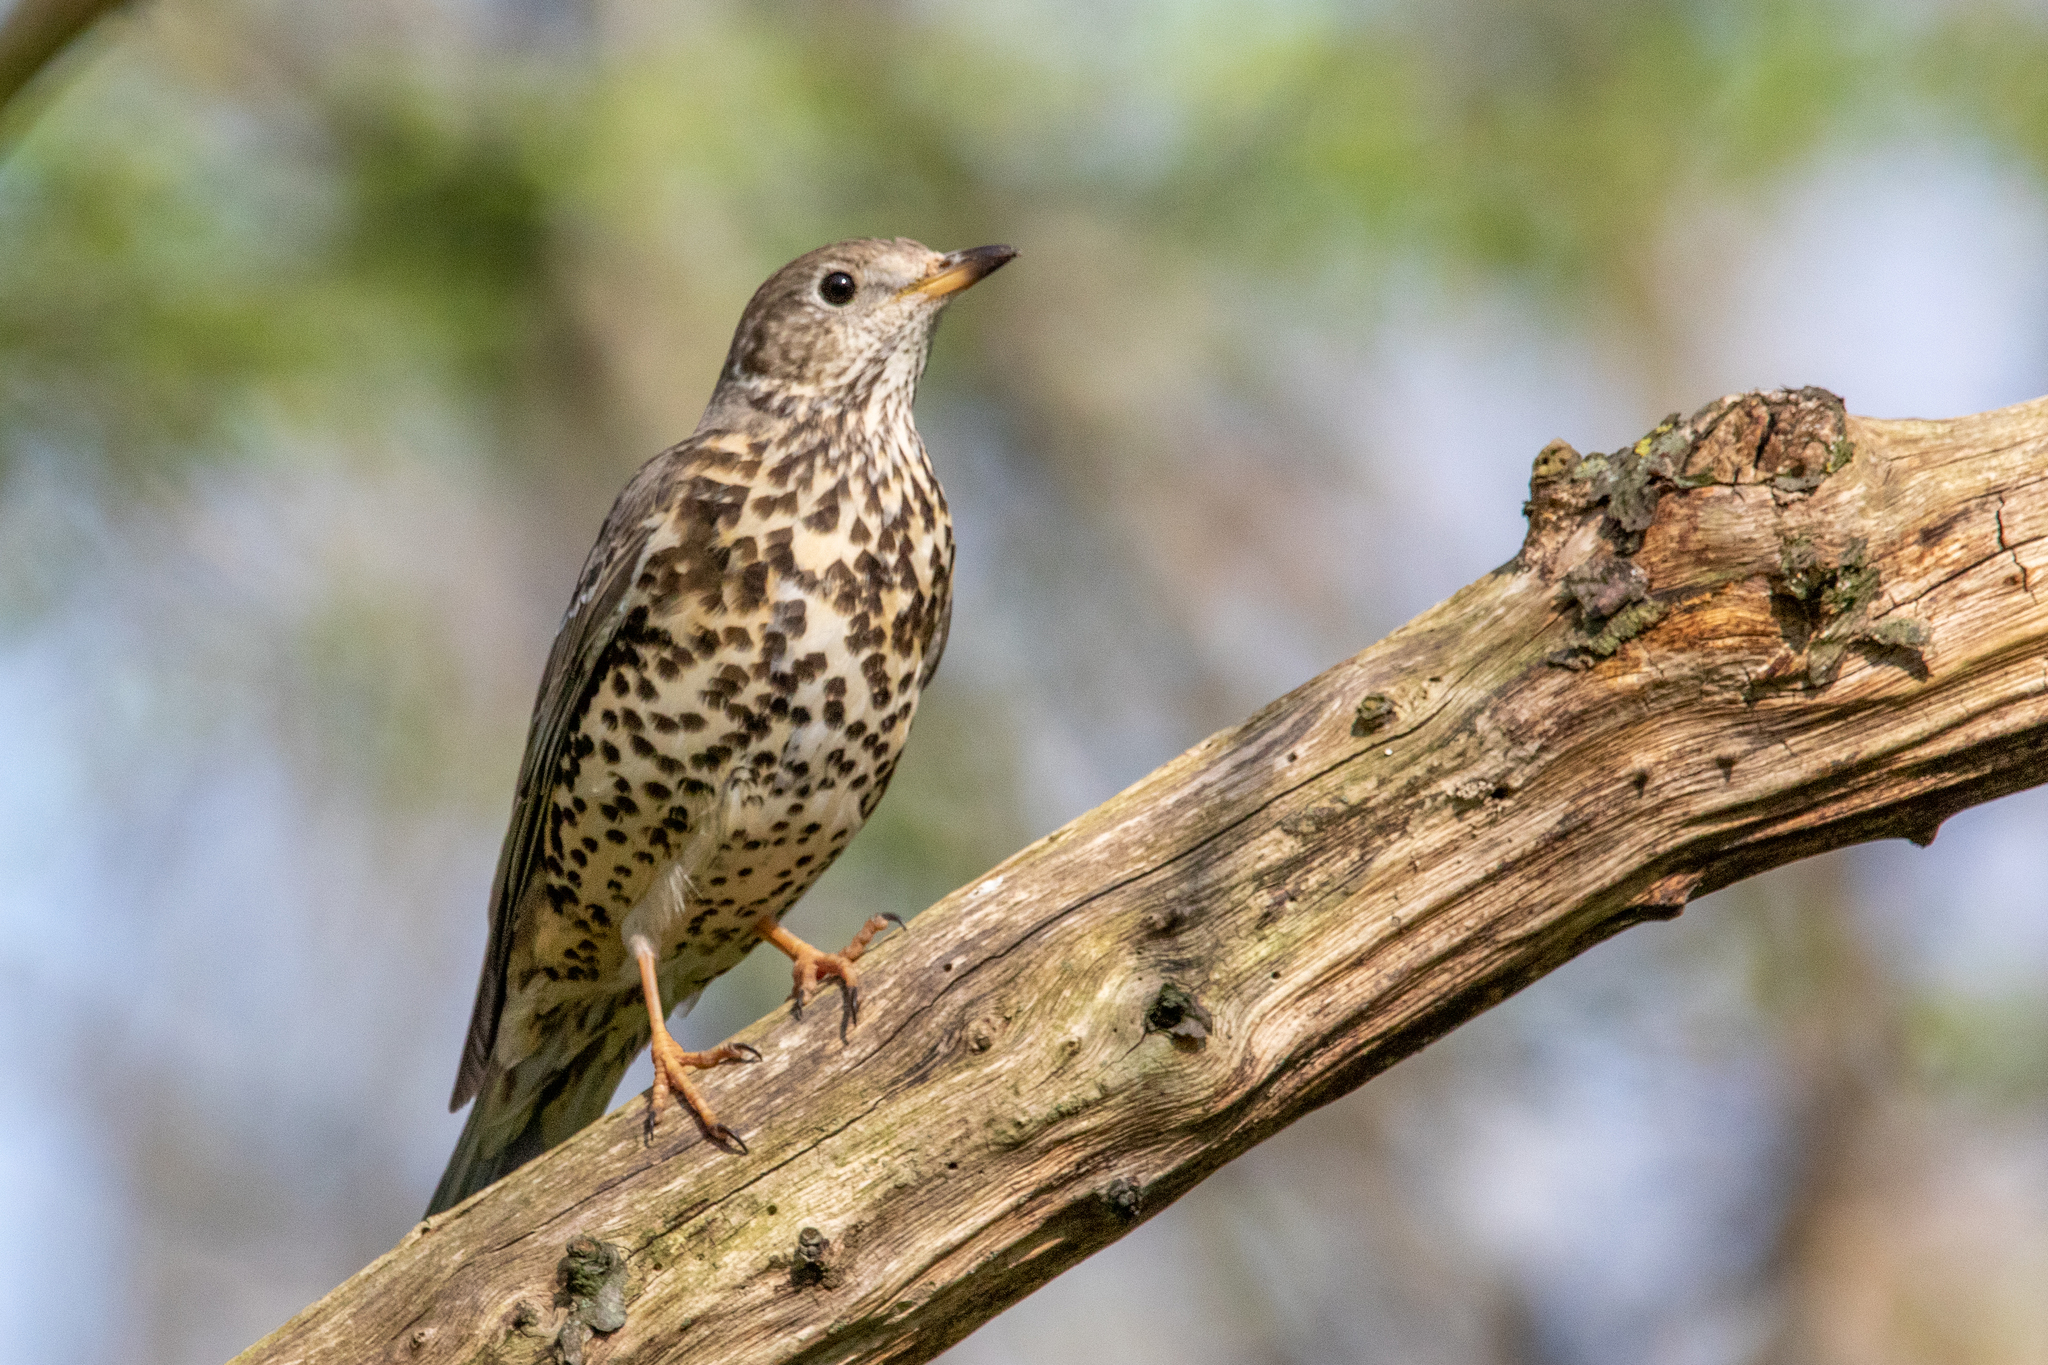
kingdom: Animalia
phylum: Chordata
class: Aves
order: Passeriformes
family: Turdidae
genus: Turdus
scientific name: Turdus viscivorus
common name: Mistle thrush
